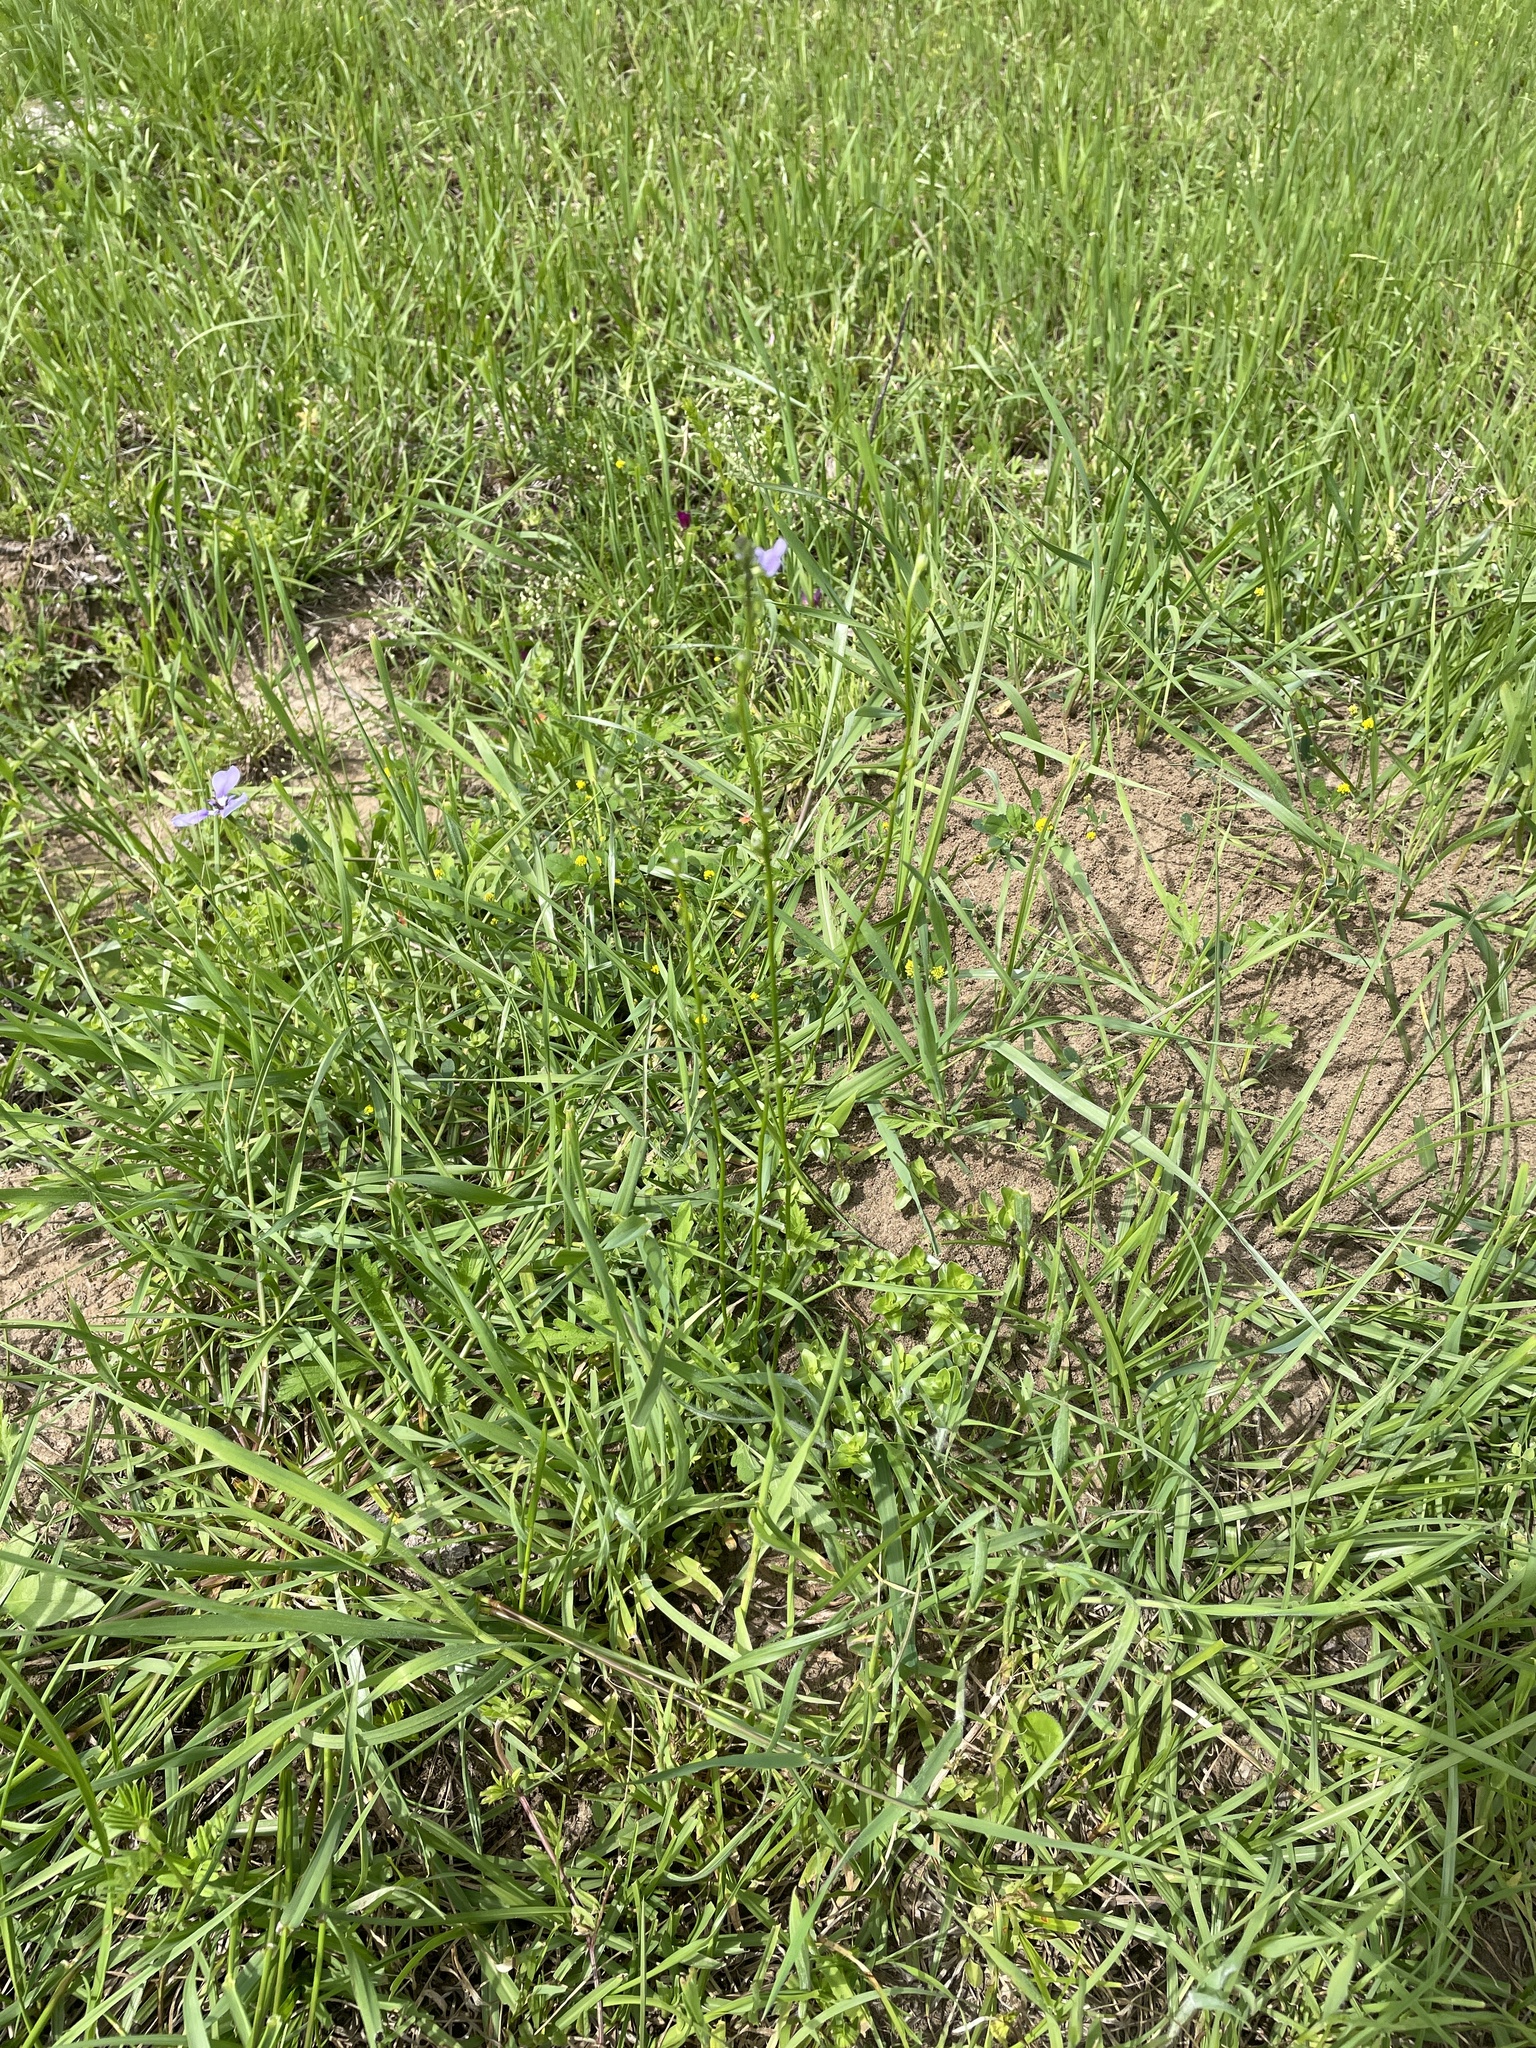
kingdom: Plantae
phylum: Tracheophyta
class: Magnoliopsida
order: Lamiales
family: Plantaginaceae
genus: Nuttallanthus
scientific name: Nuttallanthus texanus
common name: Texas toadflax
